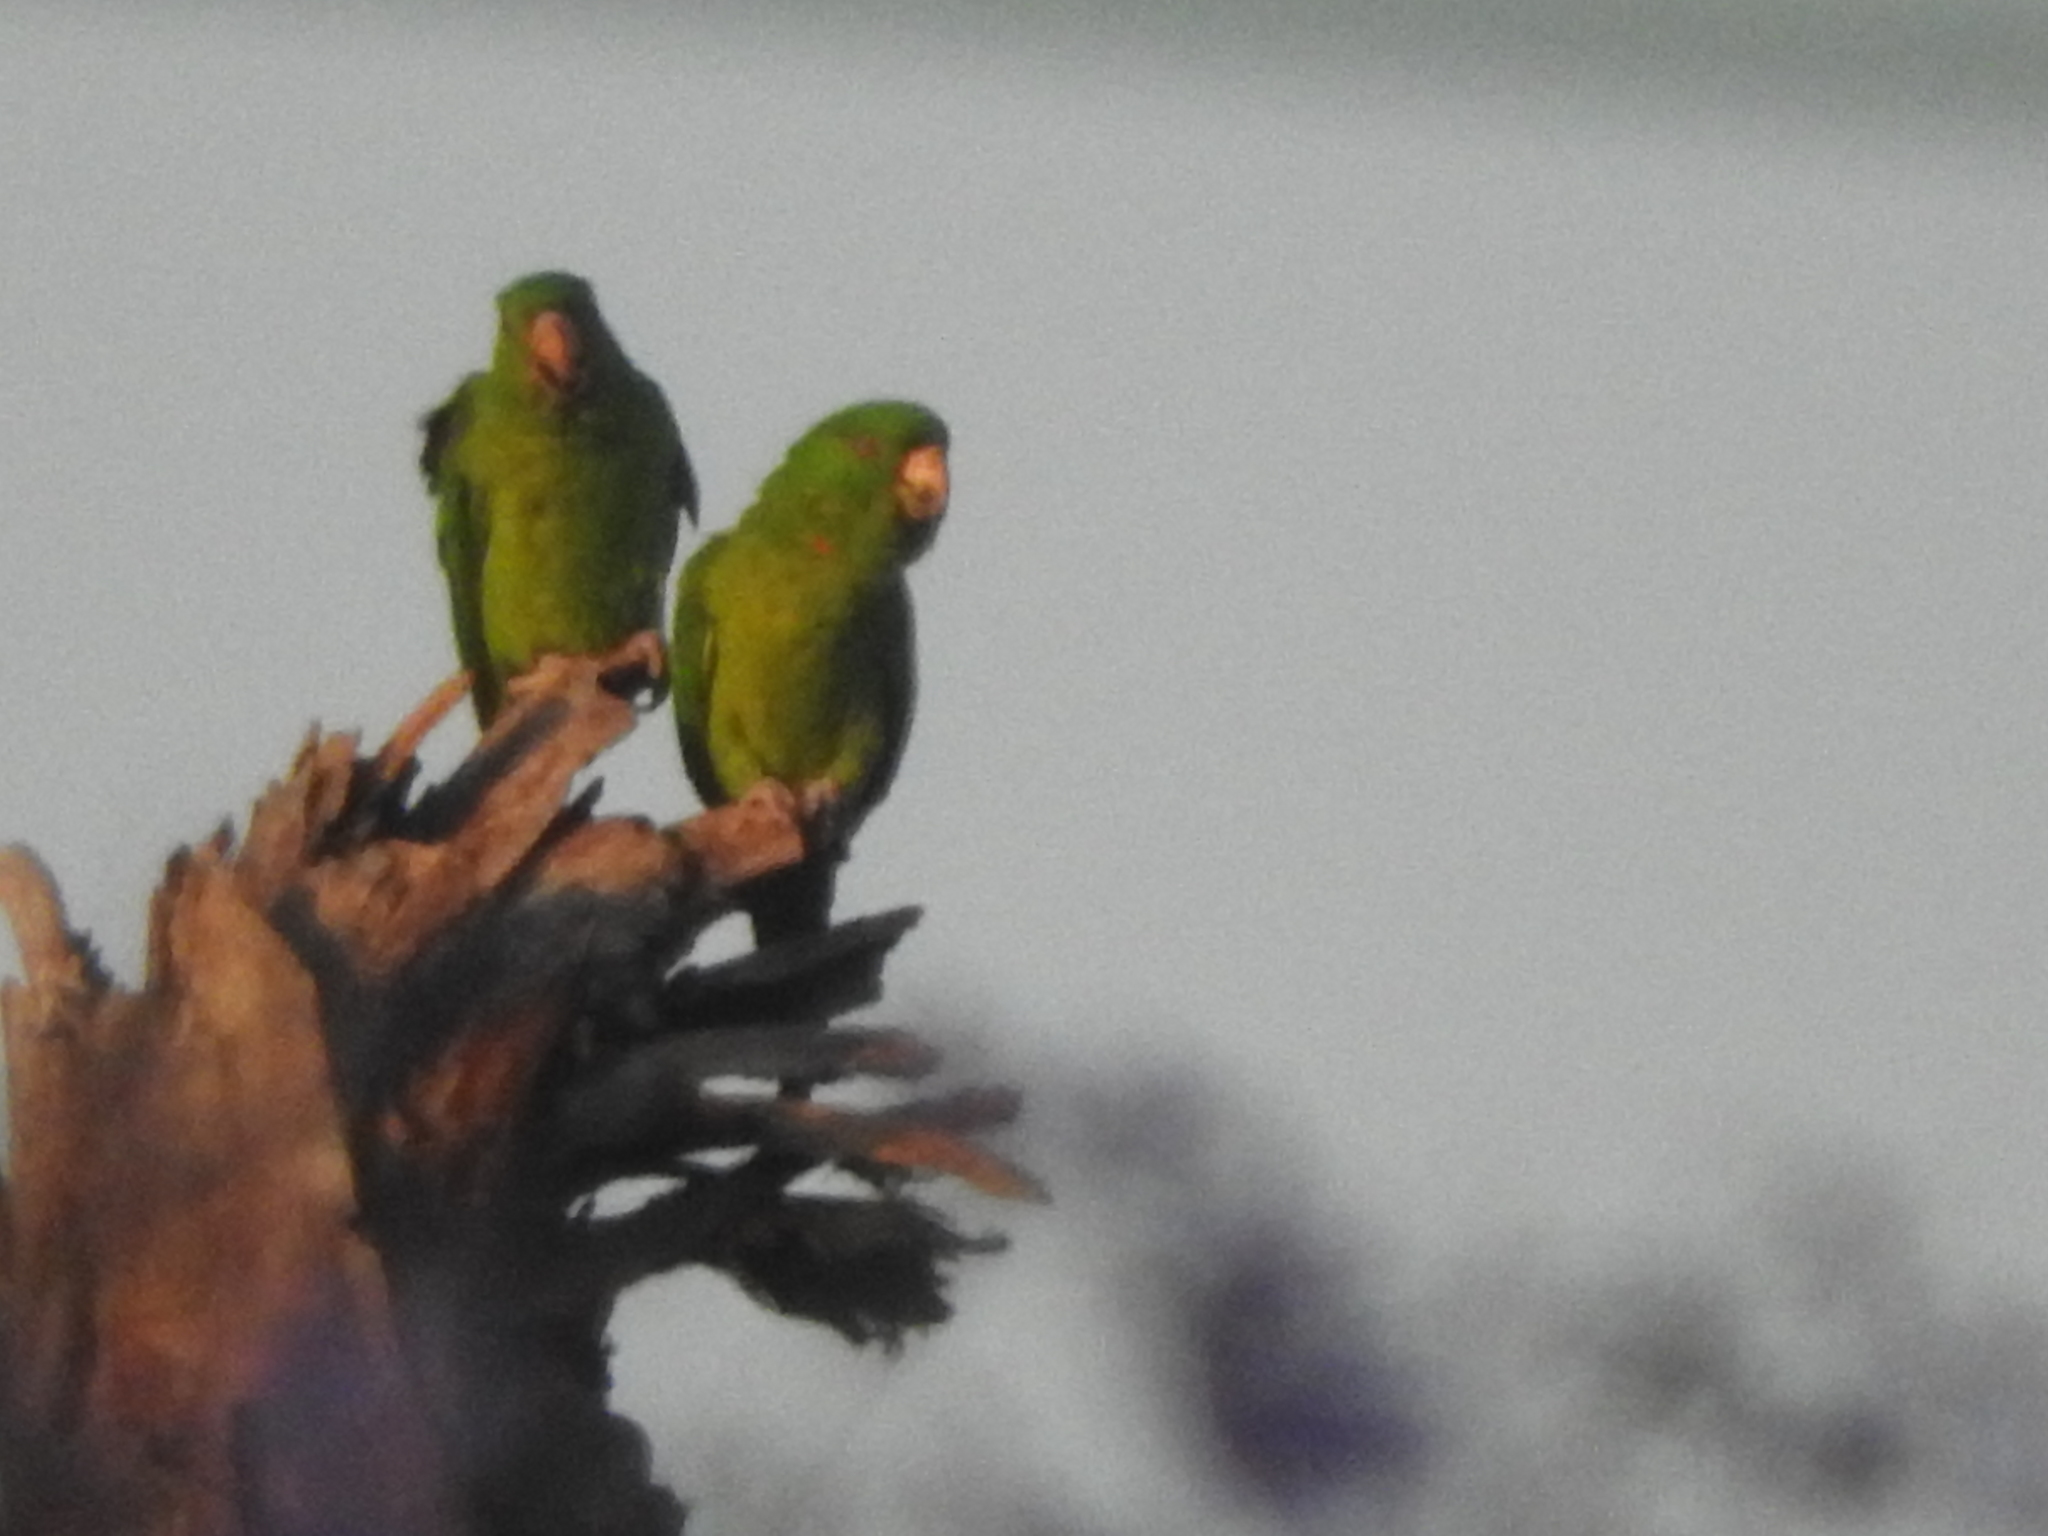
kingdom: Animalia
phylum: Chordata
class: Aves
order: Psittaciformes
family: Psittacidae
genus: Aratinga
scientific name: Aratinga holochlora
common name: Green parakeet
